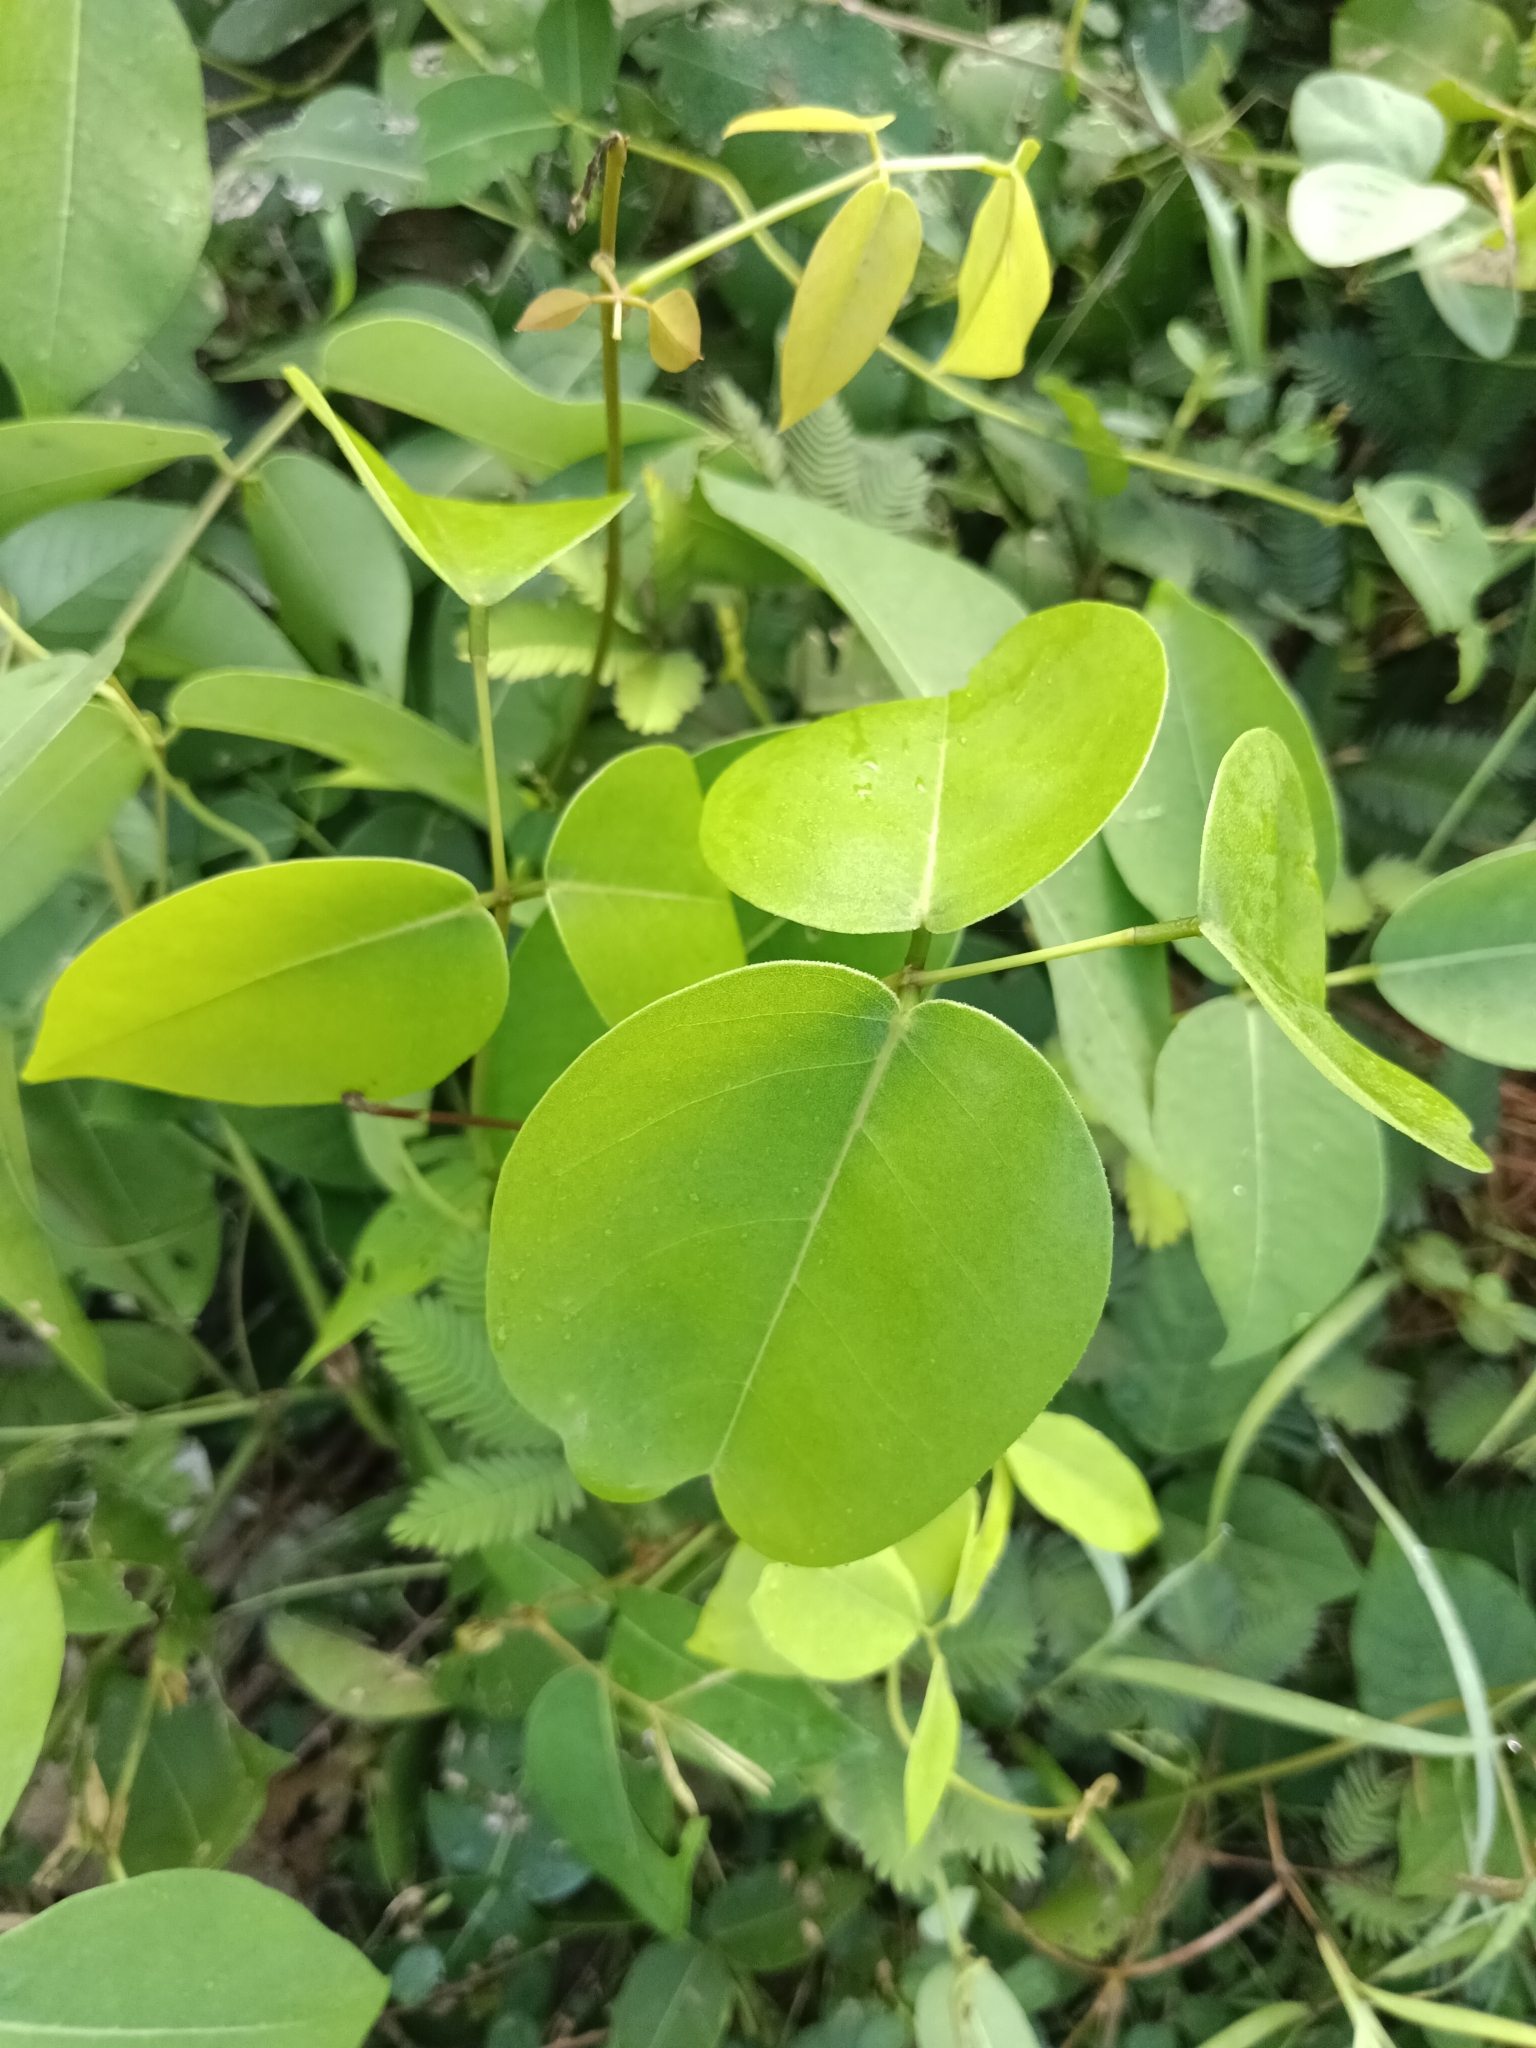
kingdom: Plantae
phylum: Tracheophyta
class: Magnoliopsida
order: Fabales
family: Fabaceae
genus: Derris
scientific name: Derris trifoliata
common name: Three-leaf derris
